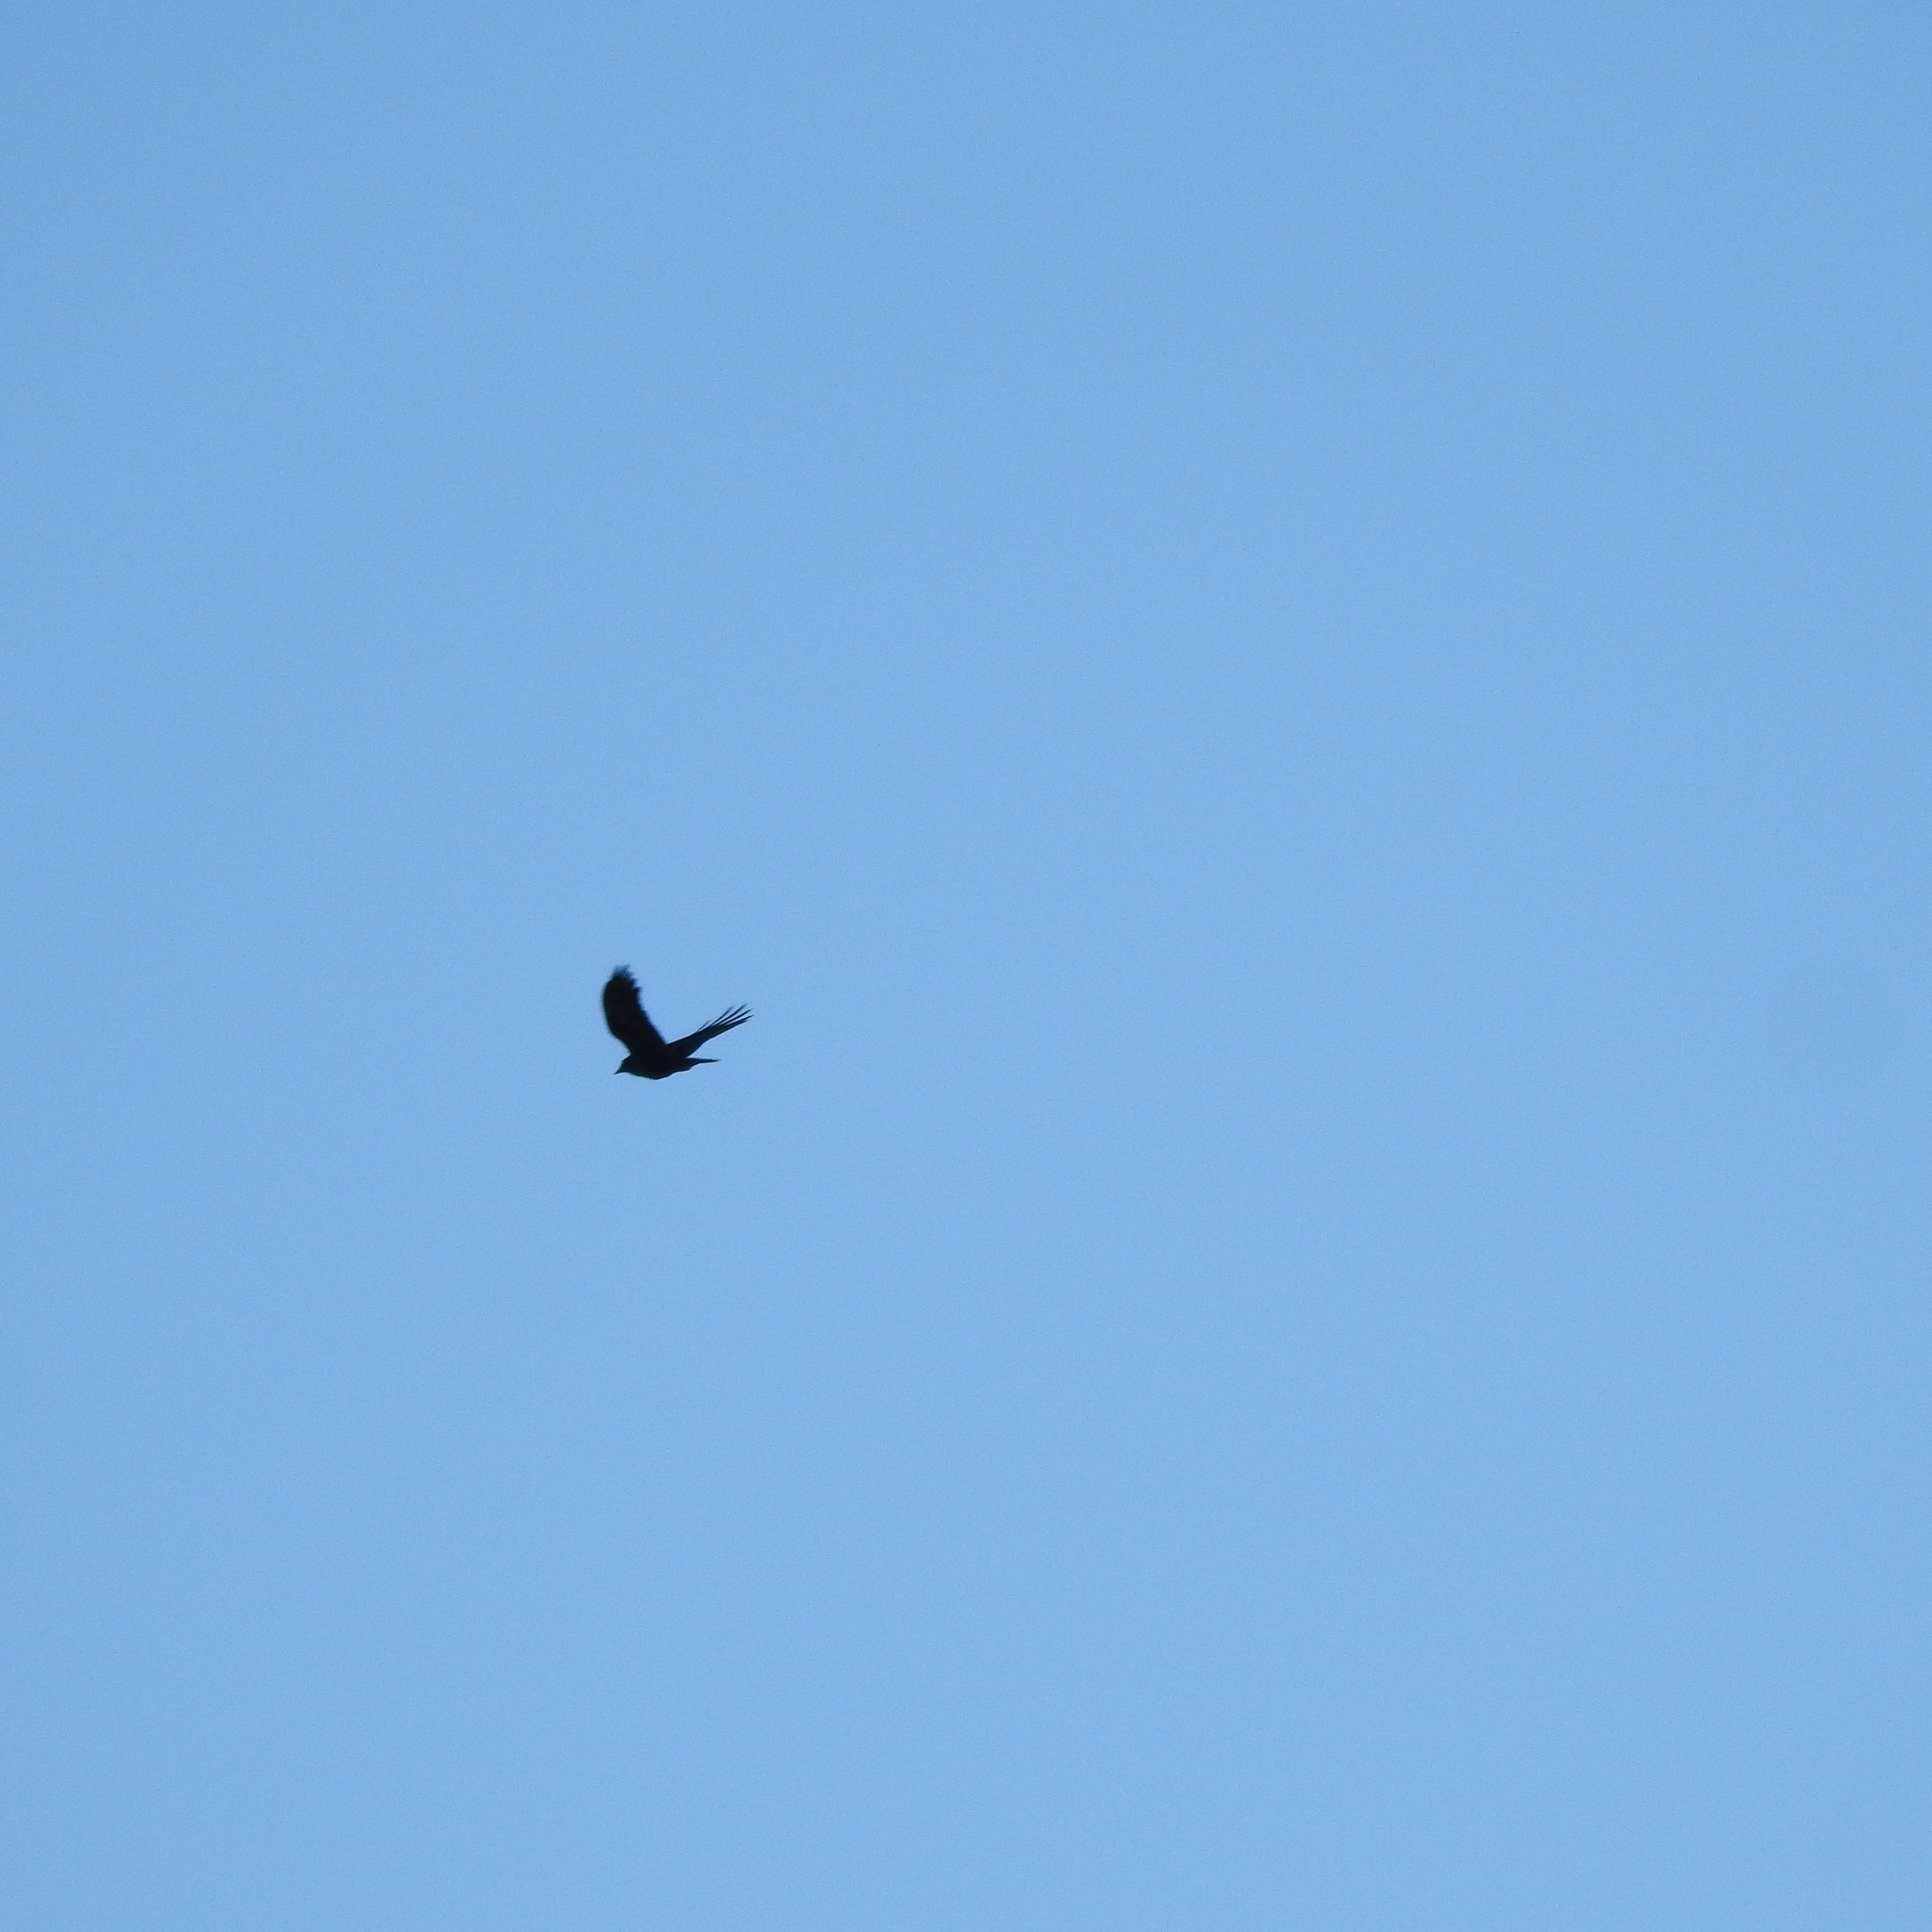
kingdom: Animalia
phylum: Chordata
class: Aves
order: Passeriformes
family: Corvidae
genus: Corvus
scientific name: Corvus brachyrhynchos
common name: American crow
